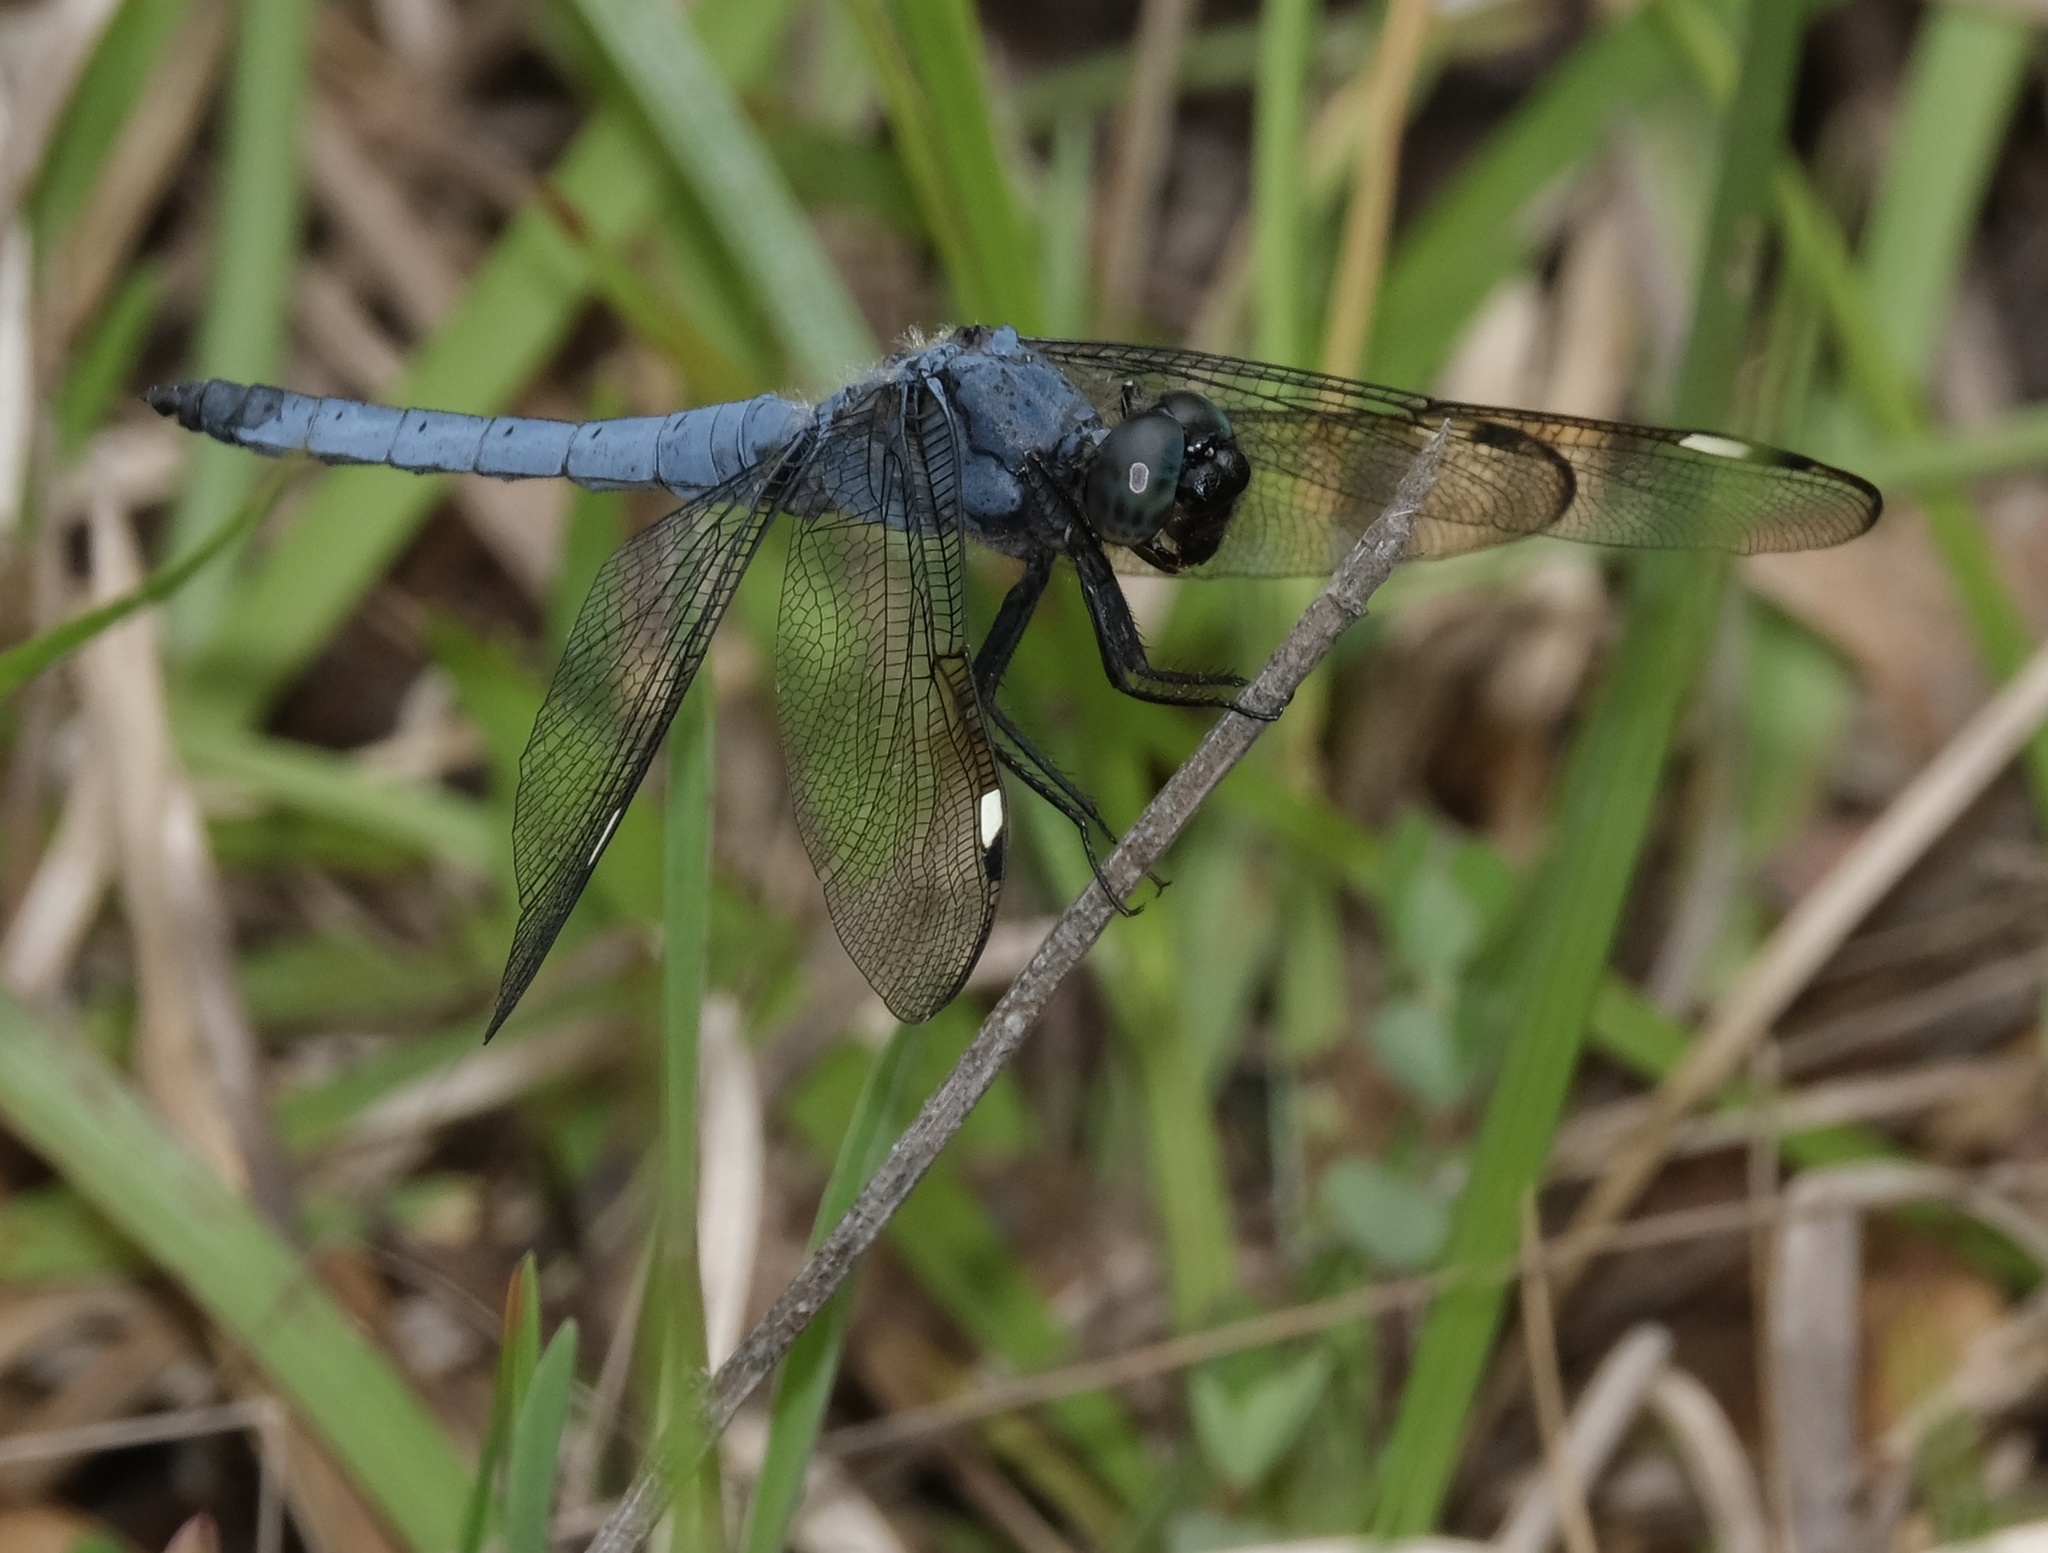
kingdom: Animalia
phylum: Arthropoda
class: Insecta
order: Odonata
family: Libellulidae
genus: Libellula
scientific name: Libellula cyanea
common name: Spangled skimmer
